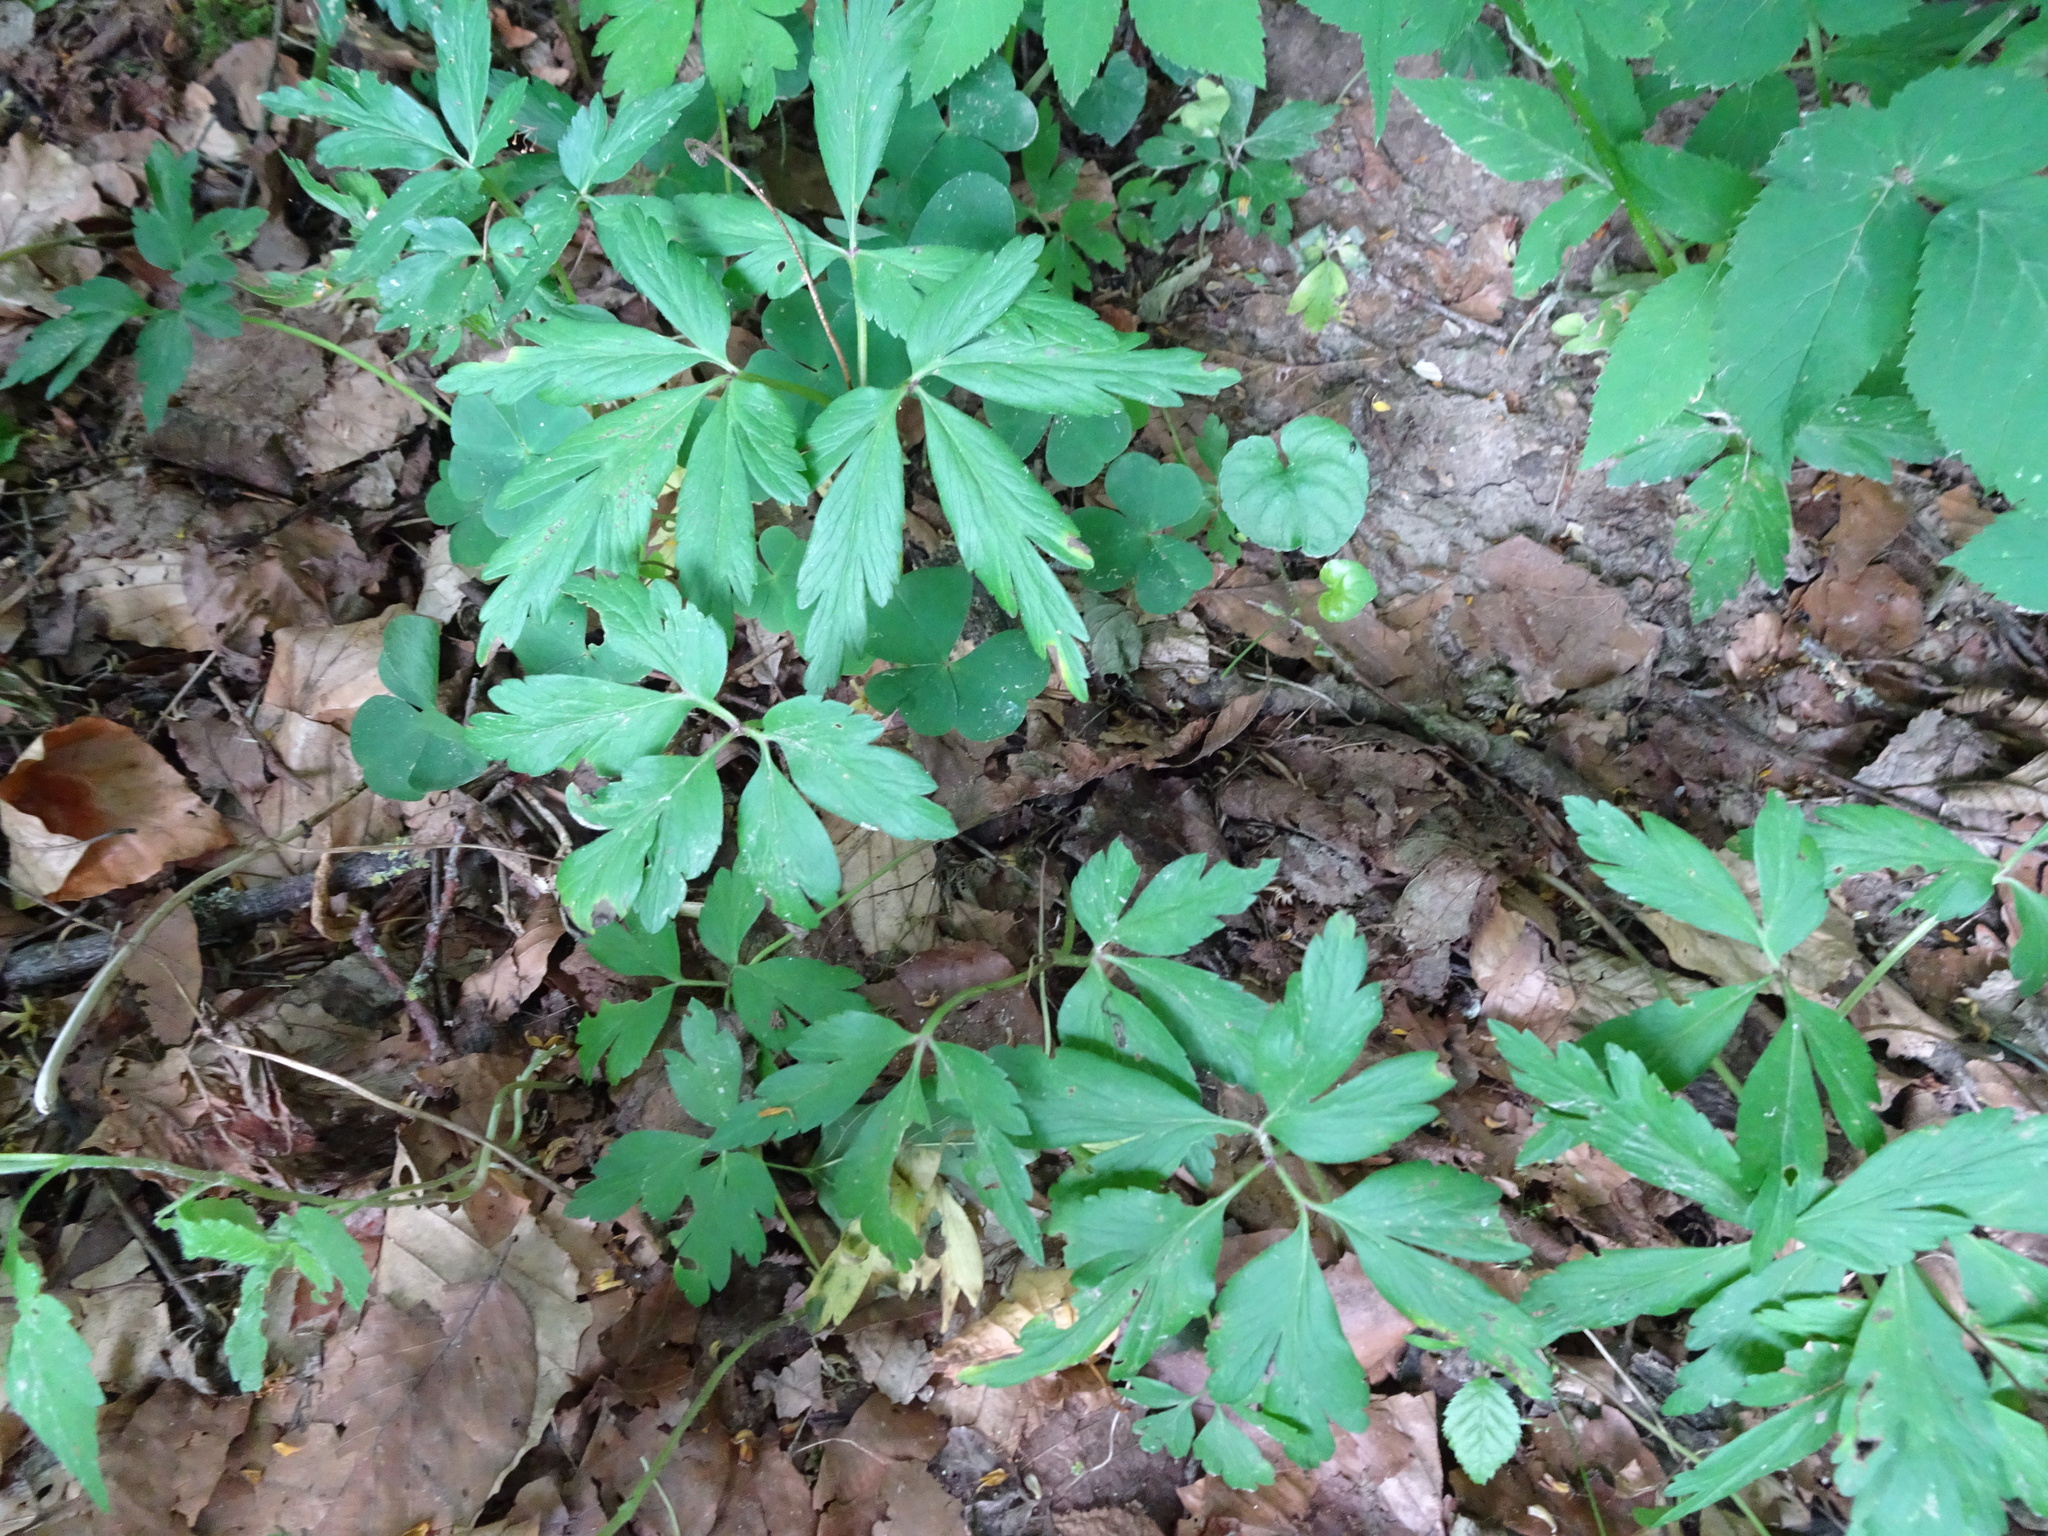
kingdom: Plantae
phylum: Tracheophyta
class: Magnoliopsida
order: Ranunculales
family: Ranunculaceae
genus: Anemone
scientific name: Anemone nemorosa
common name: Wood anemone
